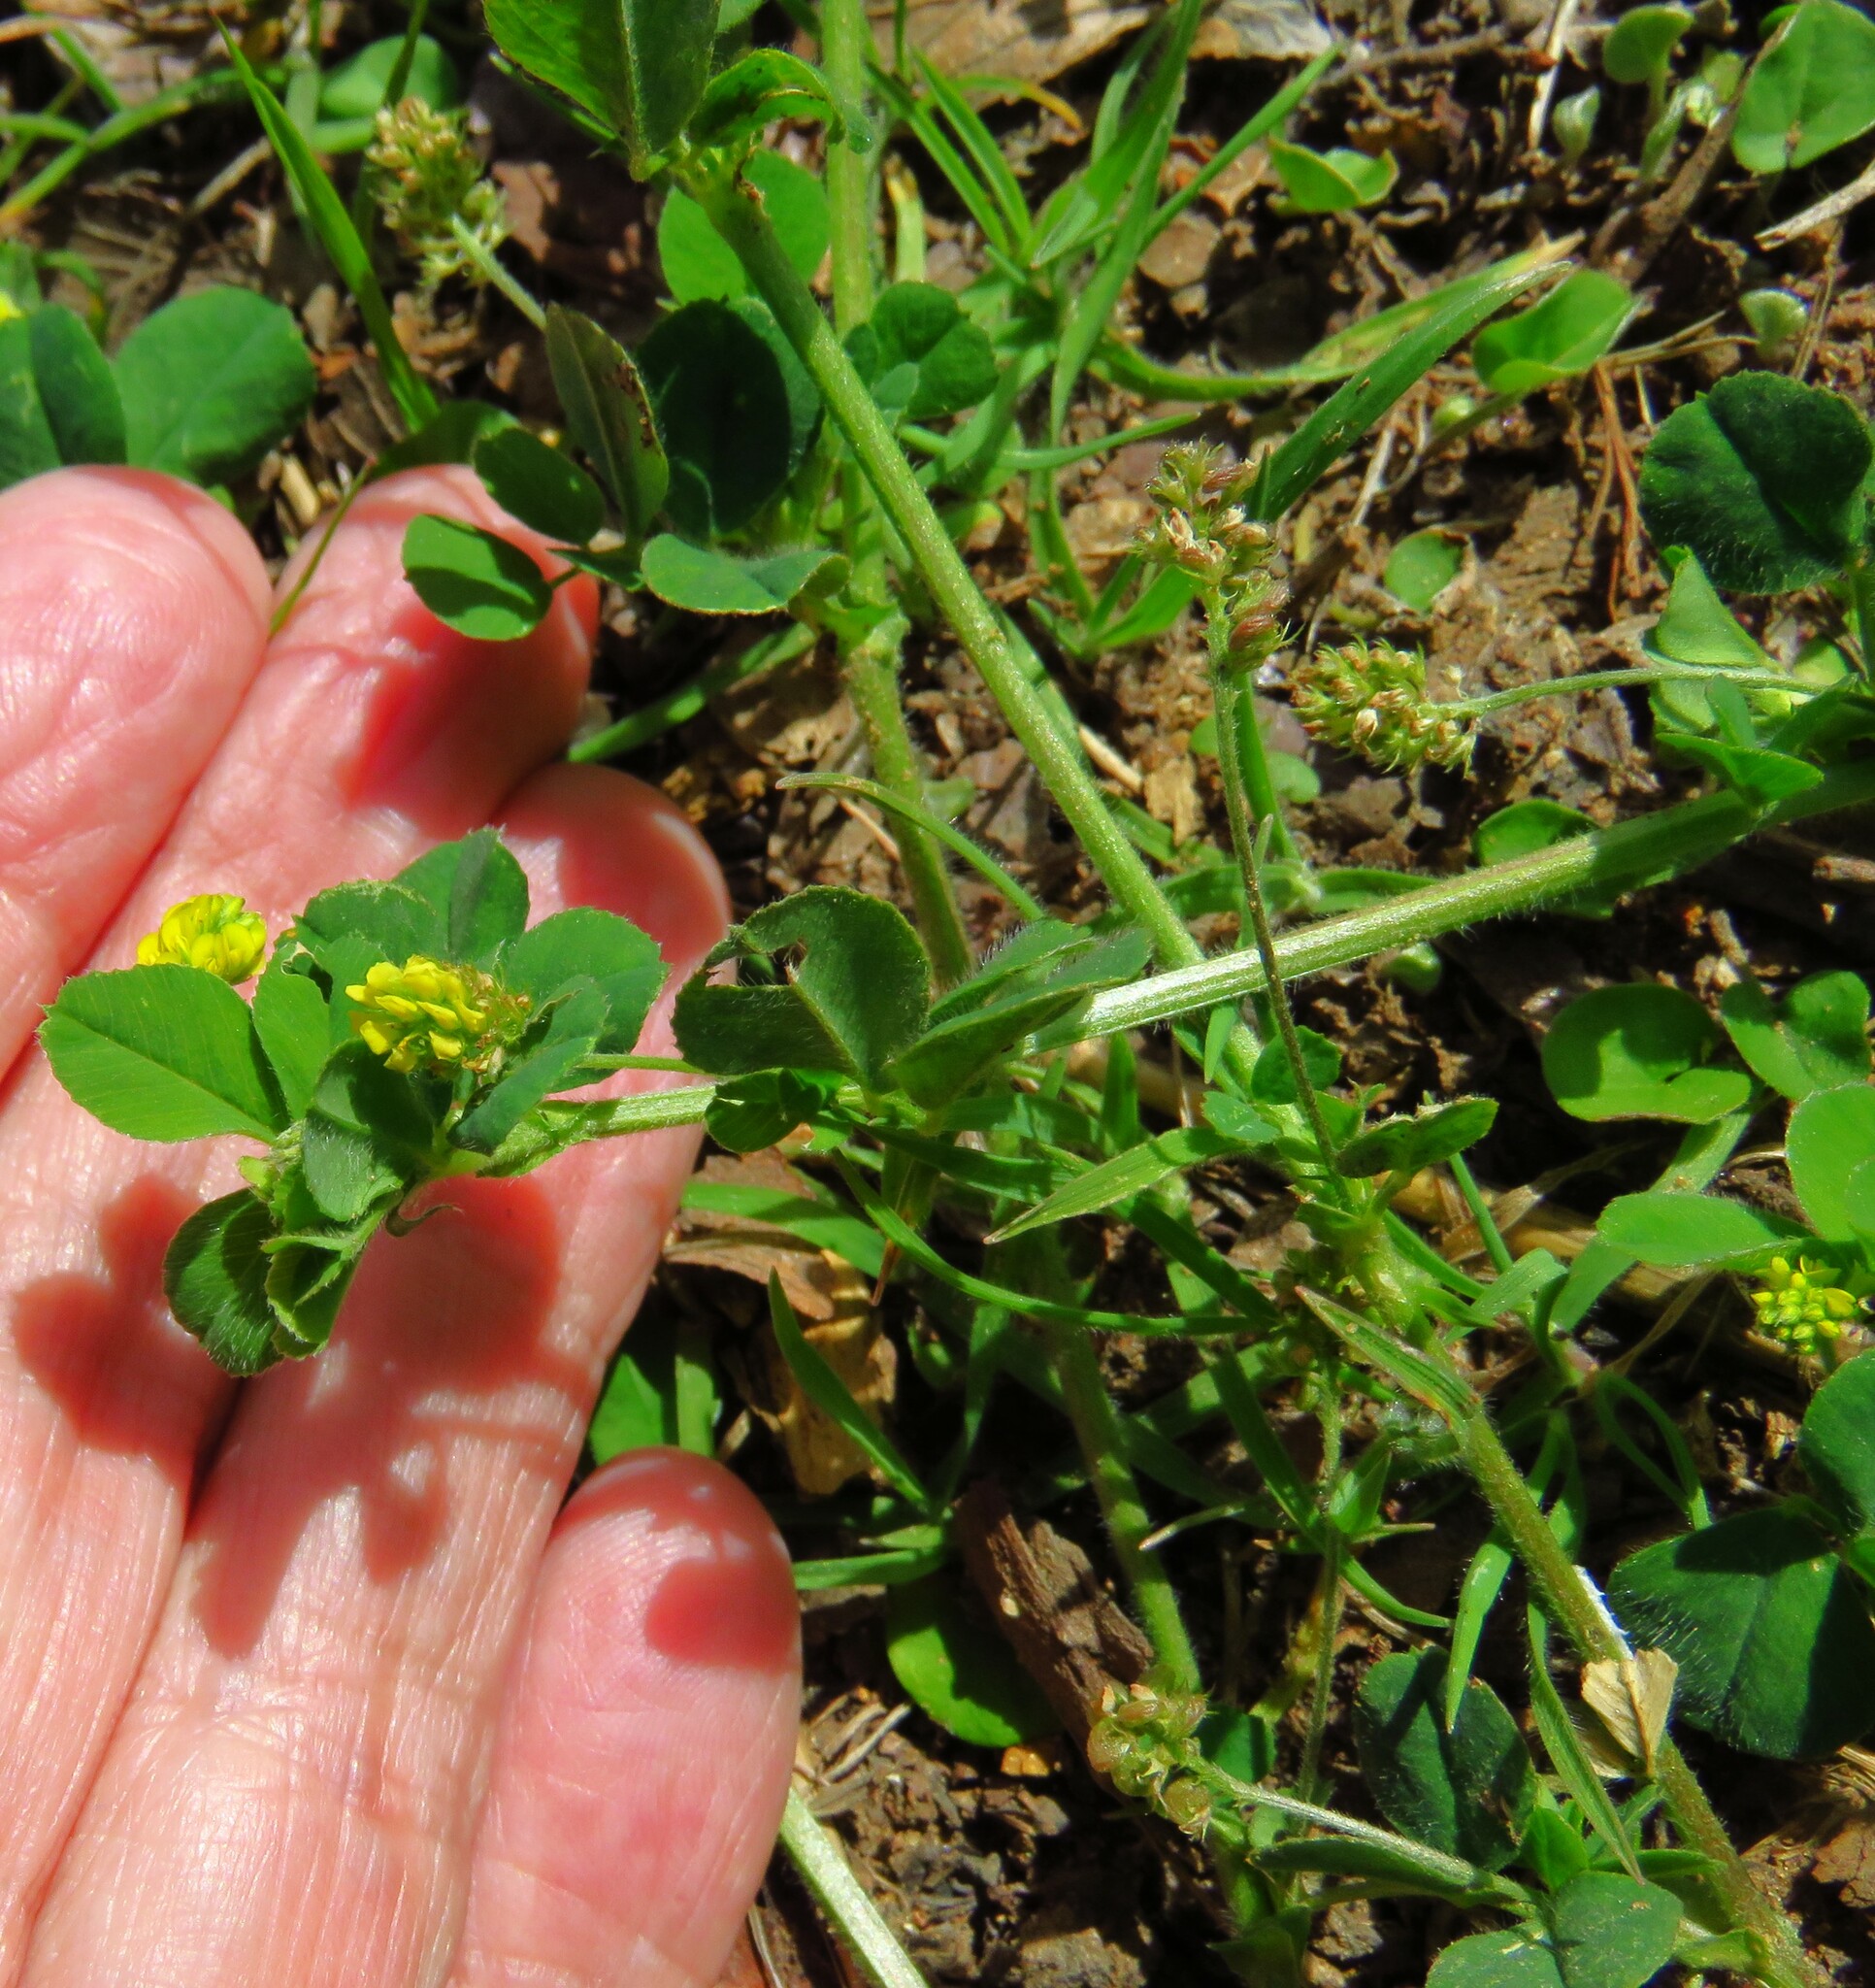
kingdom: Plantae
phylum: Tracheophyta
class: Magnoliopsida
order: Fabales
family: Fabaceae
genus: Medicago
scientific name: Medicago lupulina
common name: Black medick
